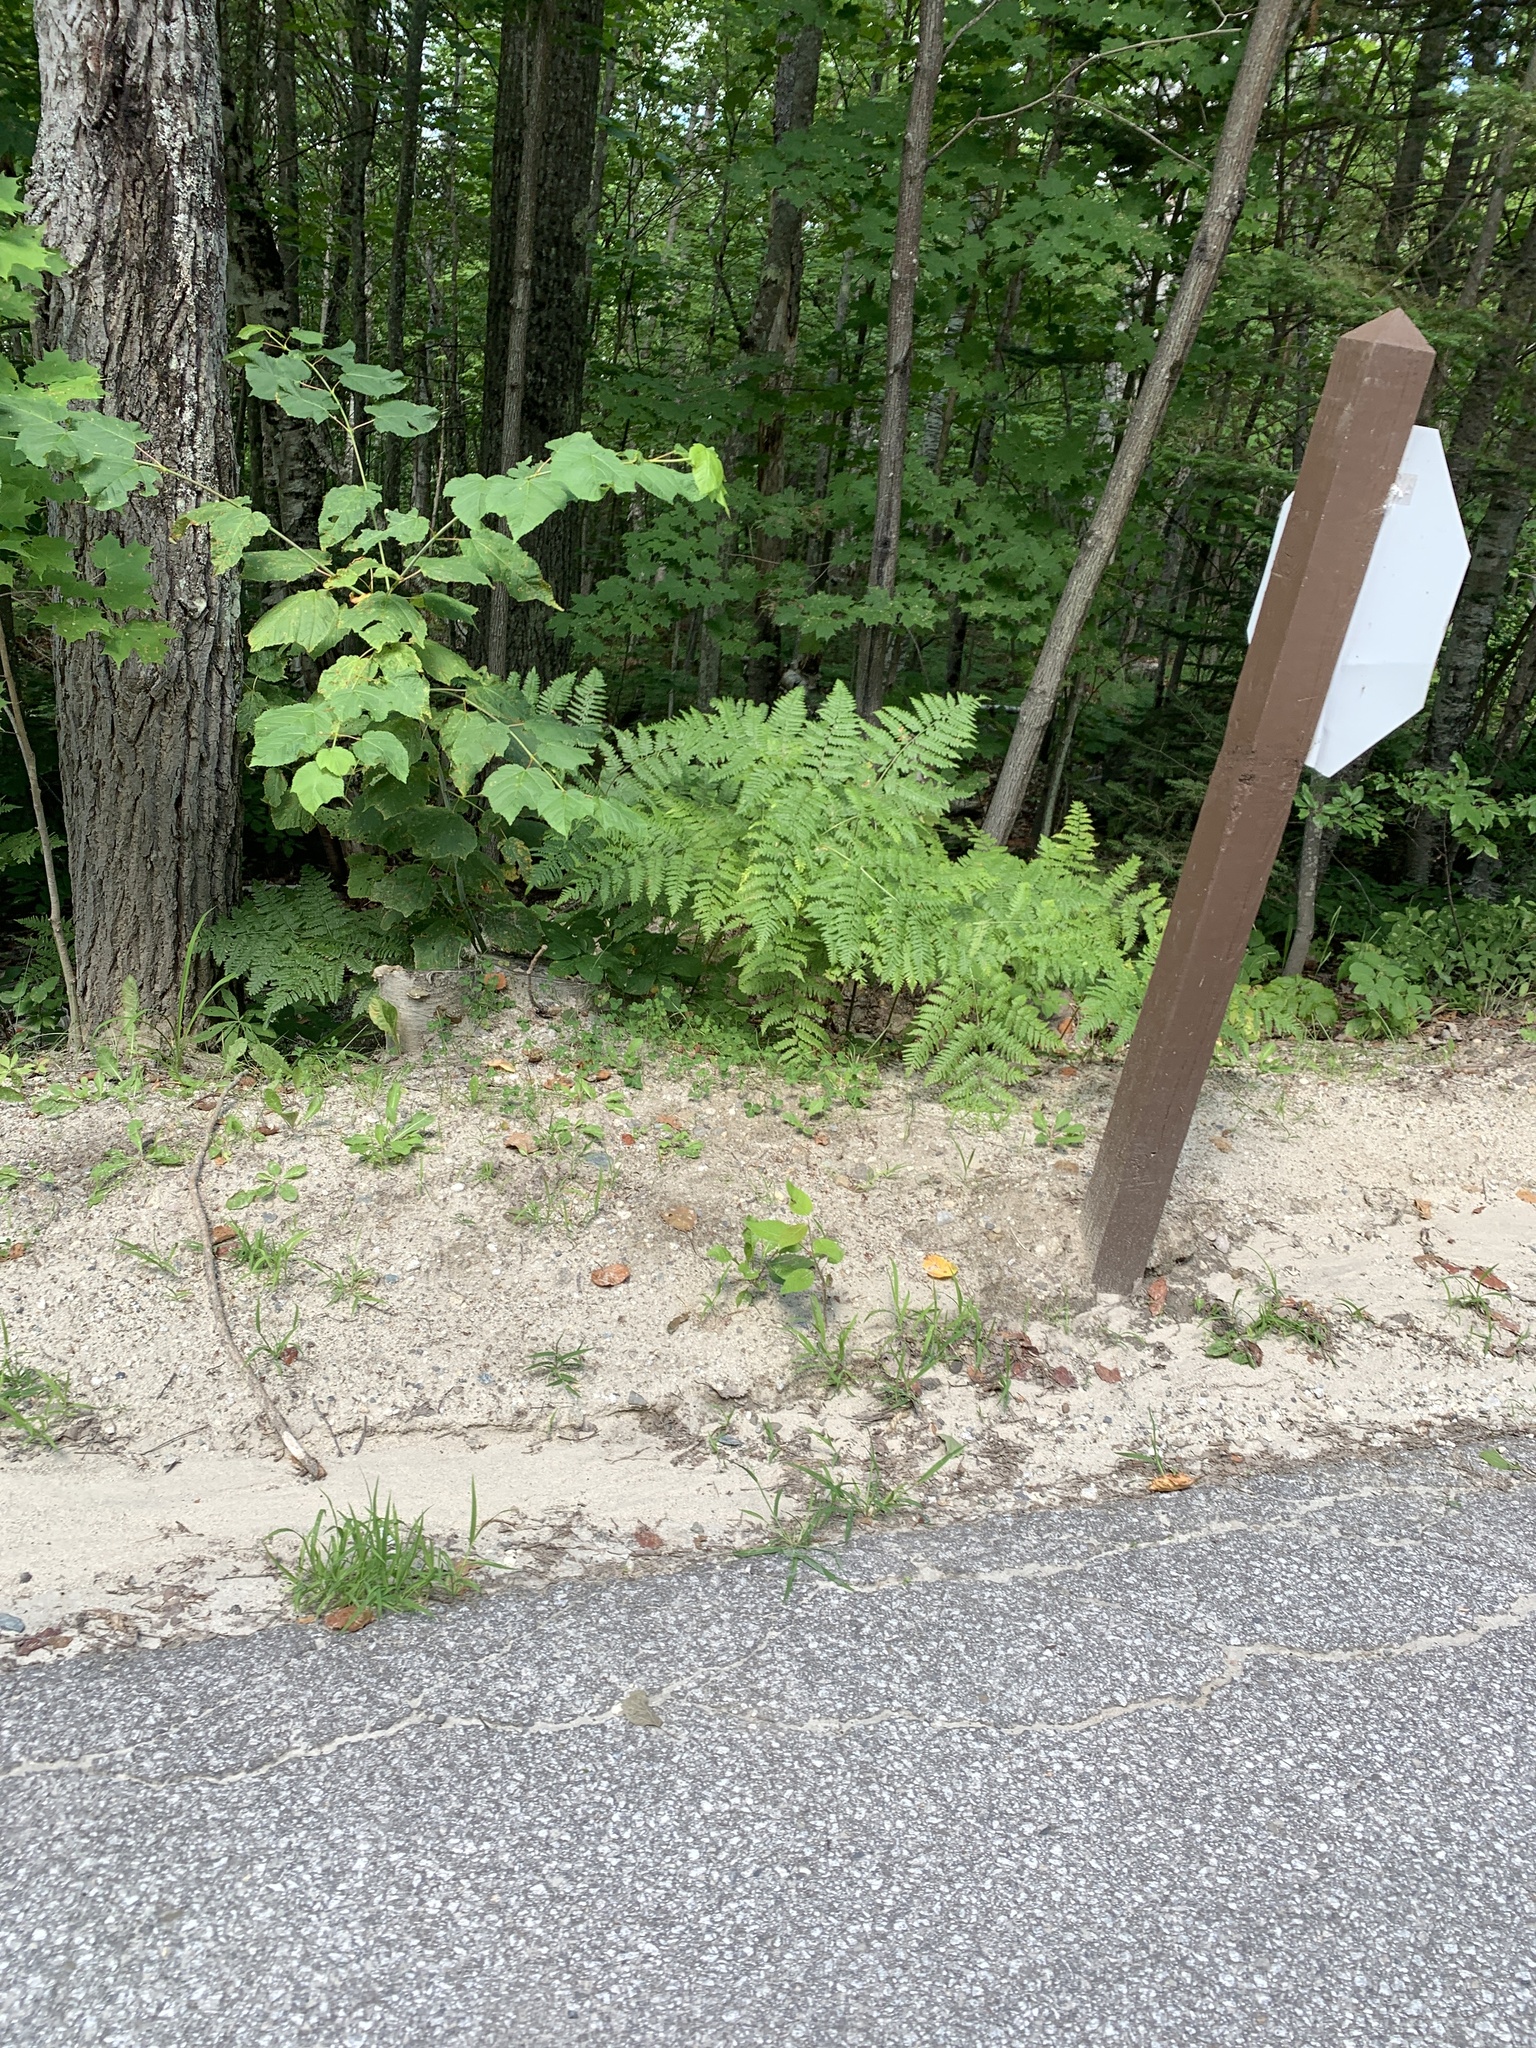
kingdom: Plantae
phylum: Tracheophyta
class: Polypodiopsida
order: Polypodiales
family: Dennstaedtiaceae
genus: Pteridium
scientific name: Pteridium aquilinum
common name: Bracken
